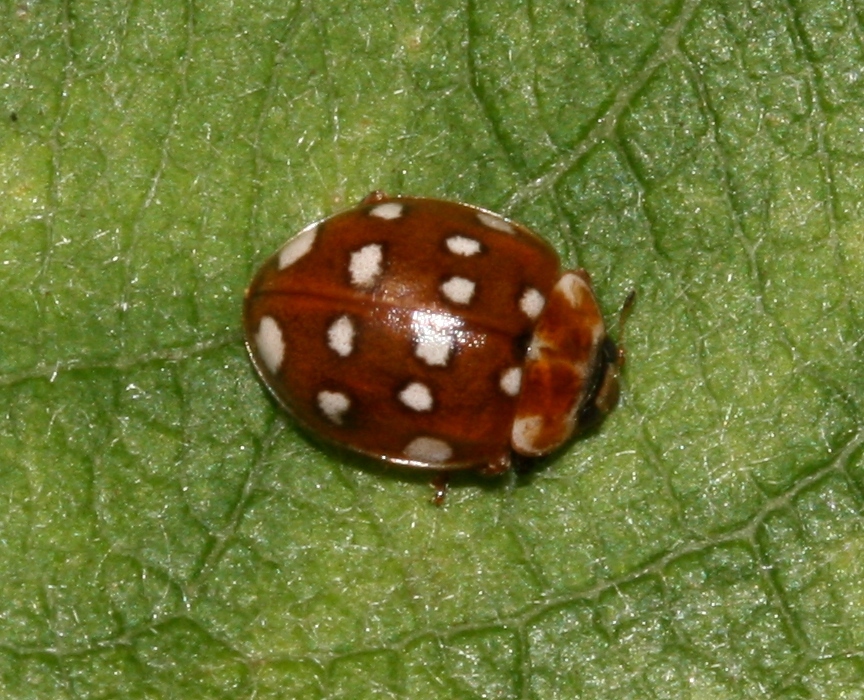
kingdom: Animalia
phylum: Arthropoda
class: Insecta
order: Coleoptera
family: Coccinellidae
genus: Calvia
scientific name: Calvia quatuordecimguttata
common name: Cream-spot ladybird
